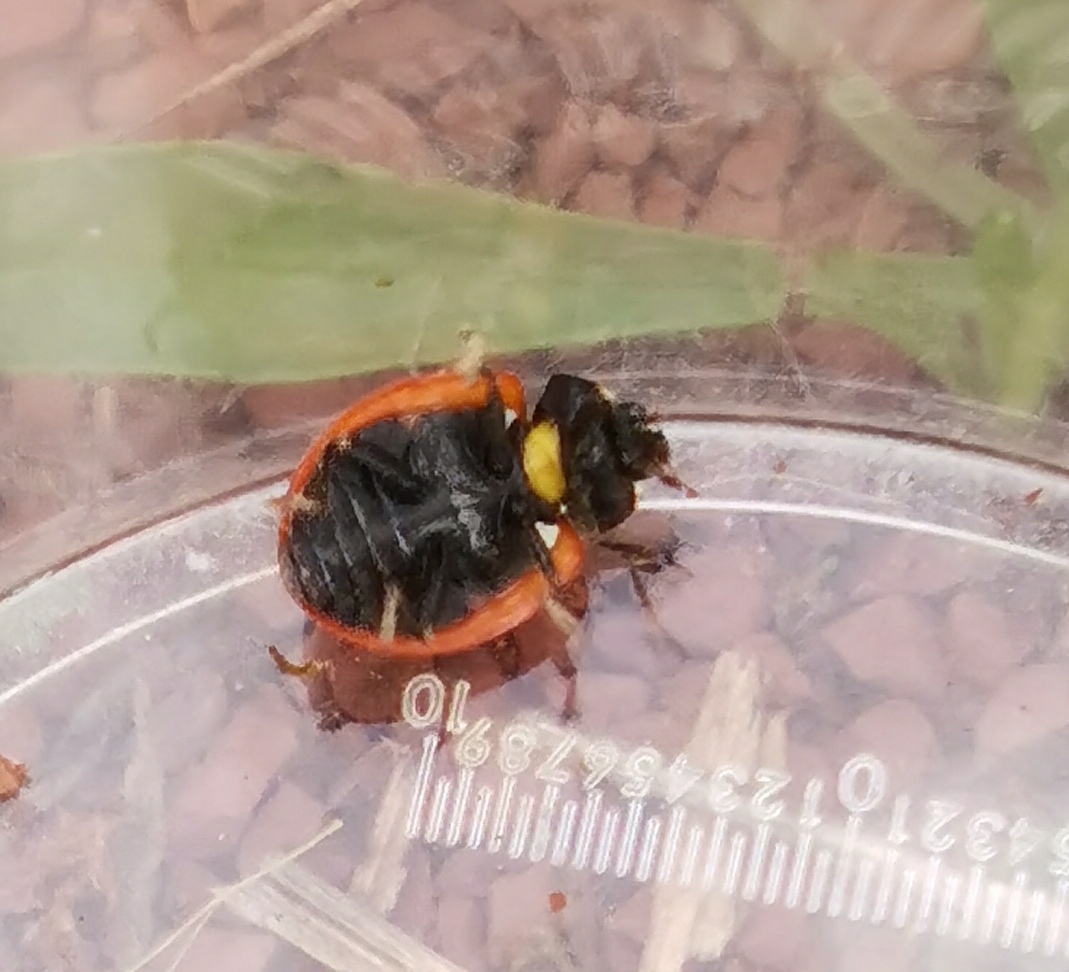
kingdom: Animalia
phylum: Arthropoda
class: Insecta
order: Coleoptera
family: Coccinellidae
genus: Coccinella
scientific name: Coccinella septempunctata
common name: Sevenspotted lady beetle
